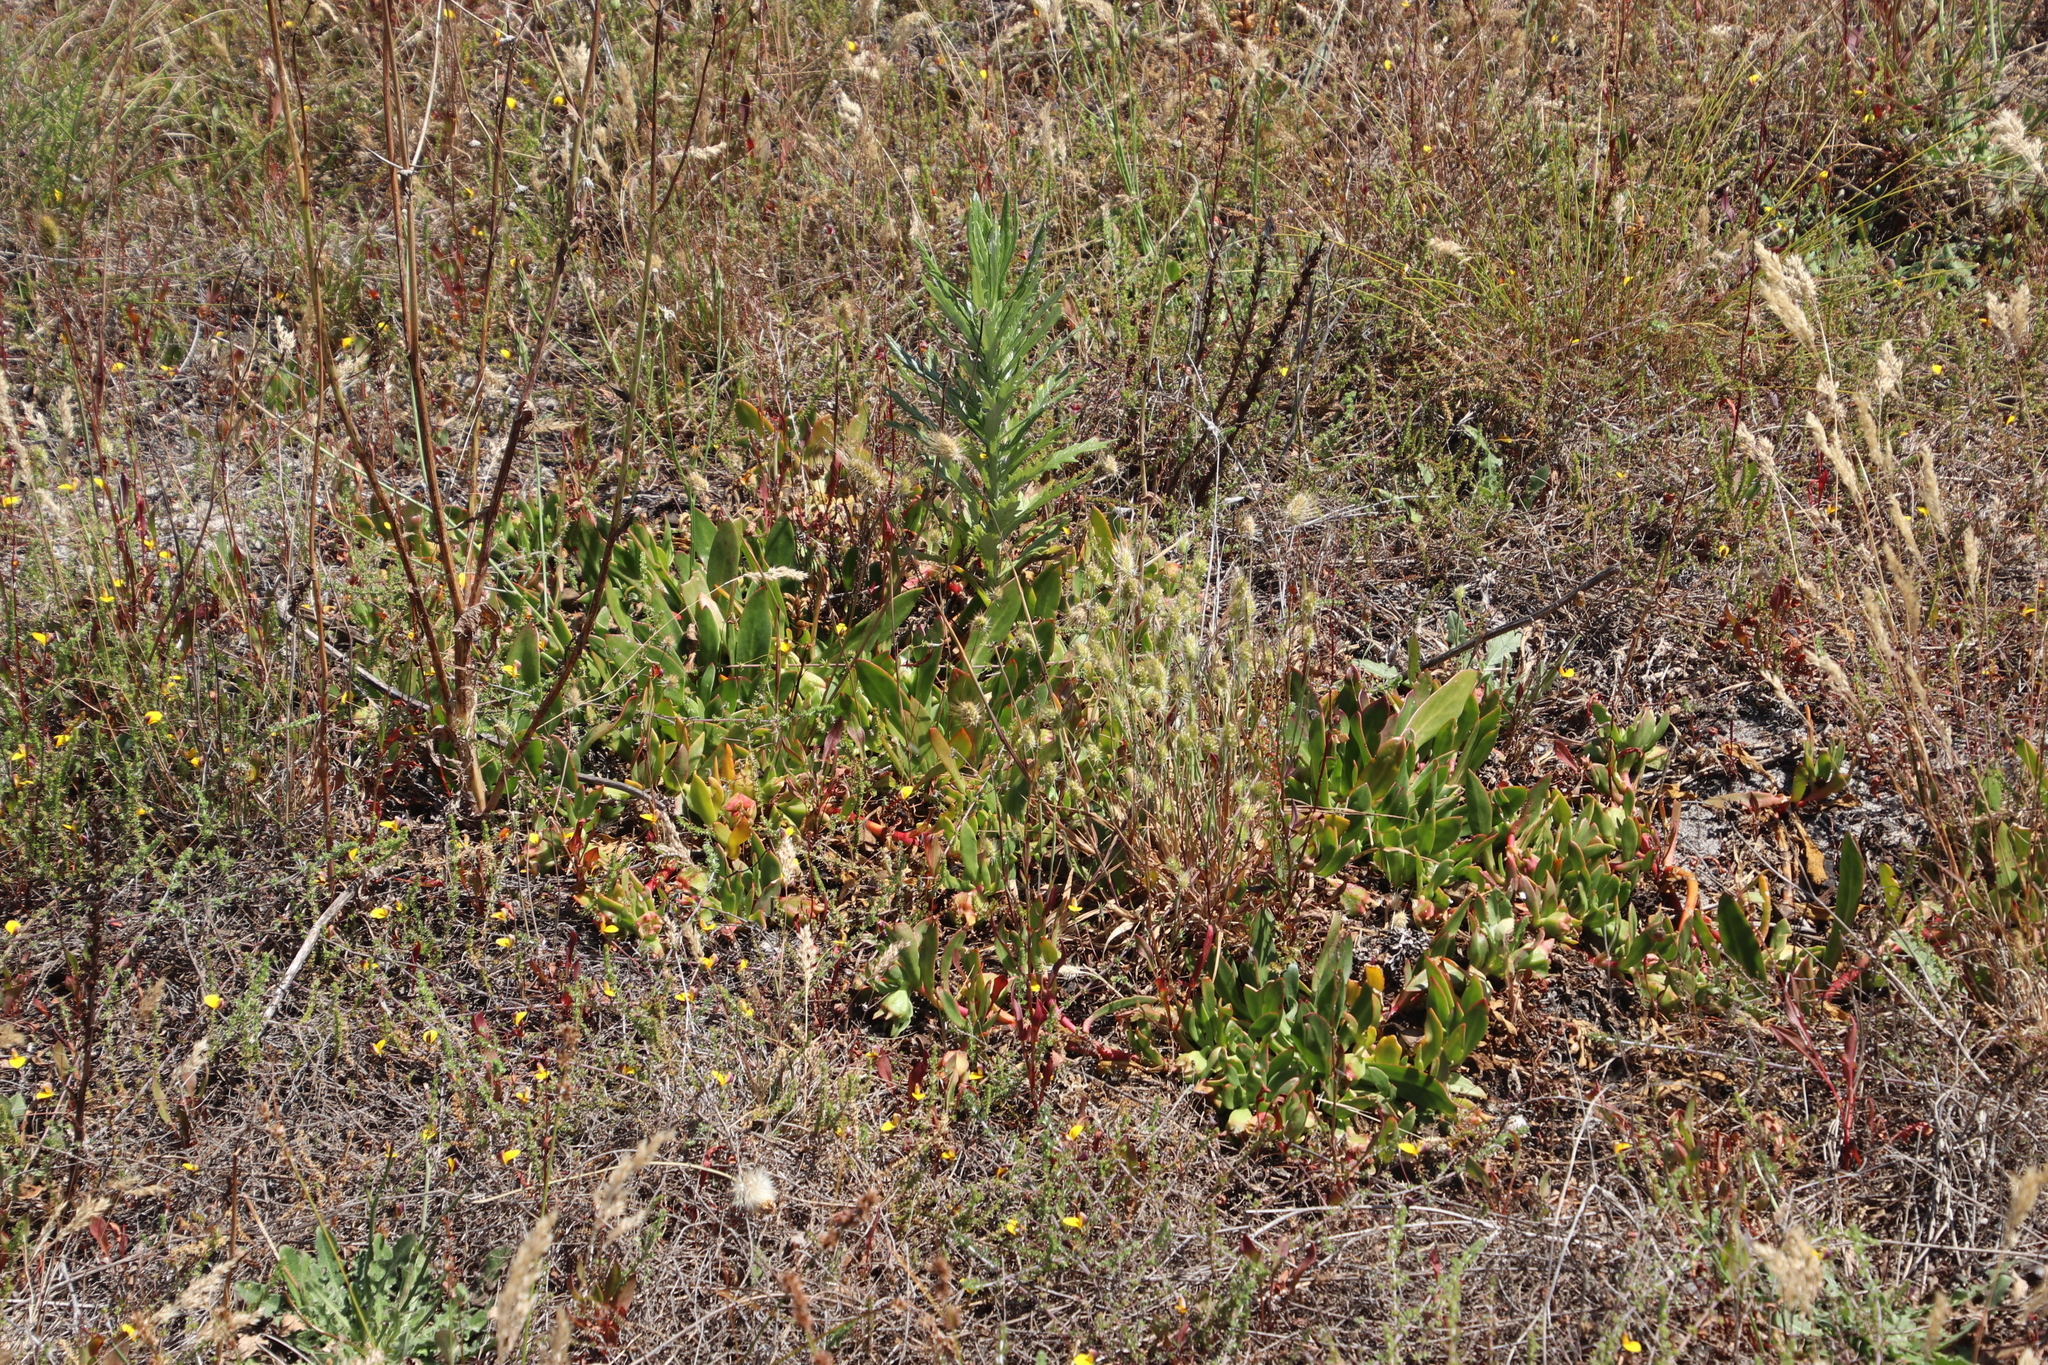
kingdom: Plantae
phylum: Tracheophyta
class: Magnoliopsida
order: Caryophyllales
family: Aizoaceae
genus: Skiatophytum
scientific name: Skiatophytum tripolium
